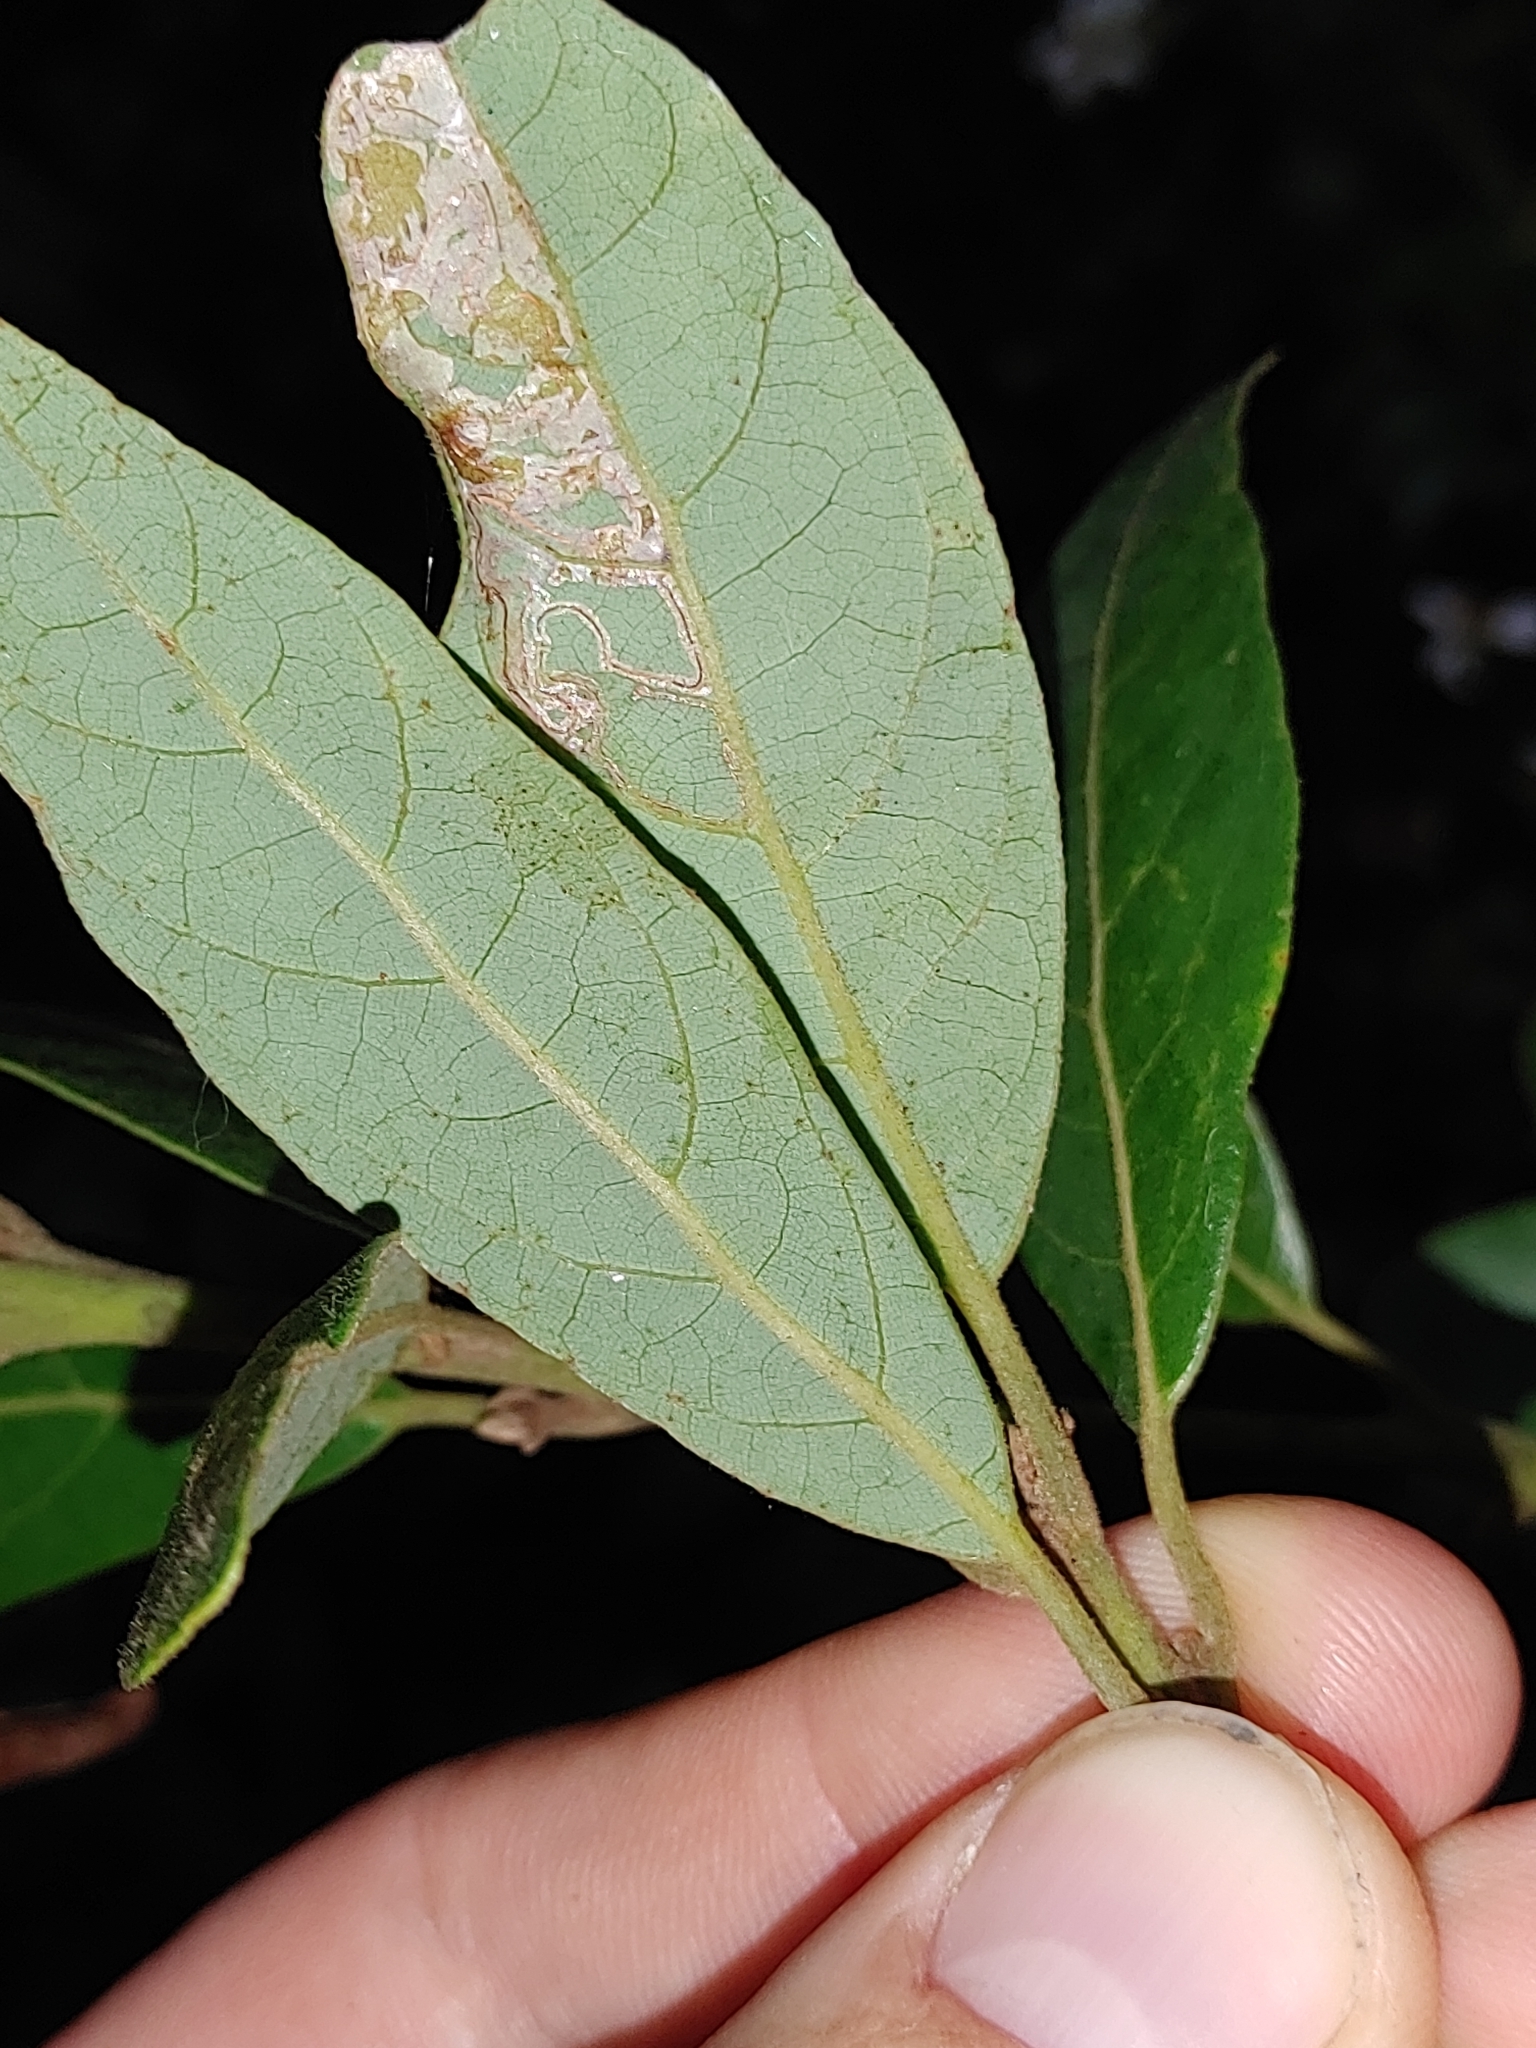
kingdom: Plantae
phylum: Tracheophyta
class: Magnoliopsida
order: Laurales
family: Lauraceae
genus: Persea
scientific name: Persea palustris
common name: Swampbay
